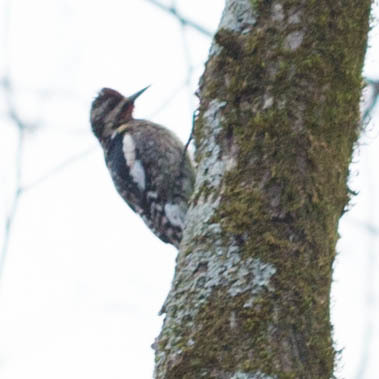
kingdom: Animalia
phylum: Chordata
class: Aves
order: Piciformes
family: Picidae
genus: Sphyrapicus
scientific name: Sphyrapicus varius
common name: Yellow-bellied sapsucker
